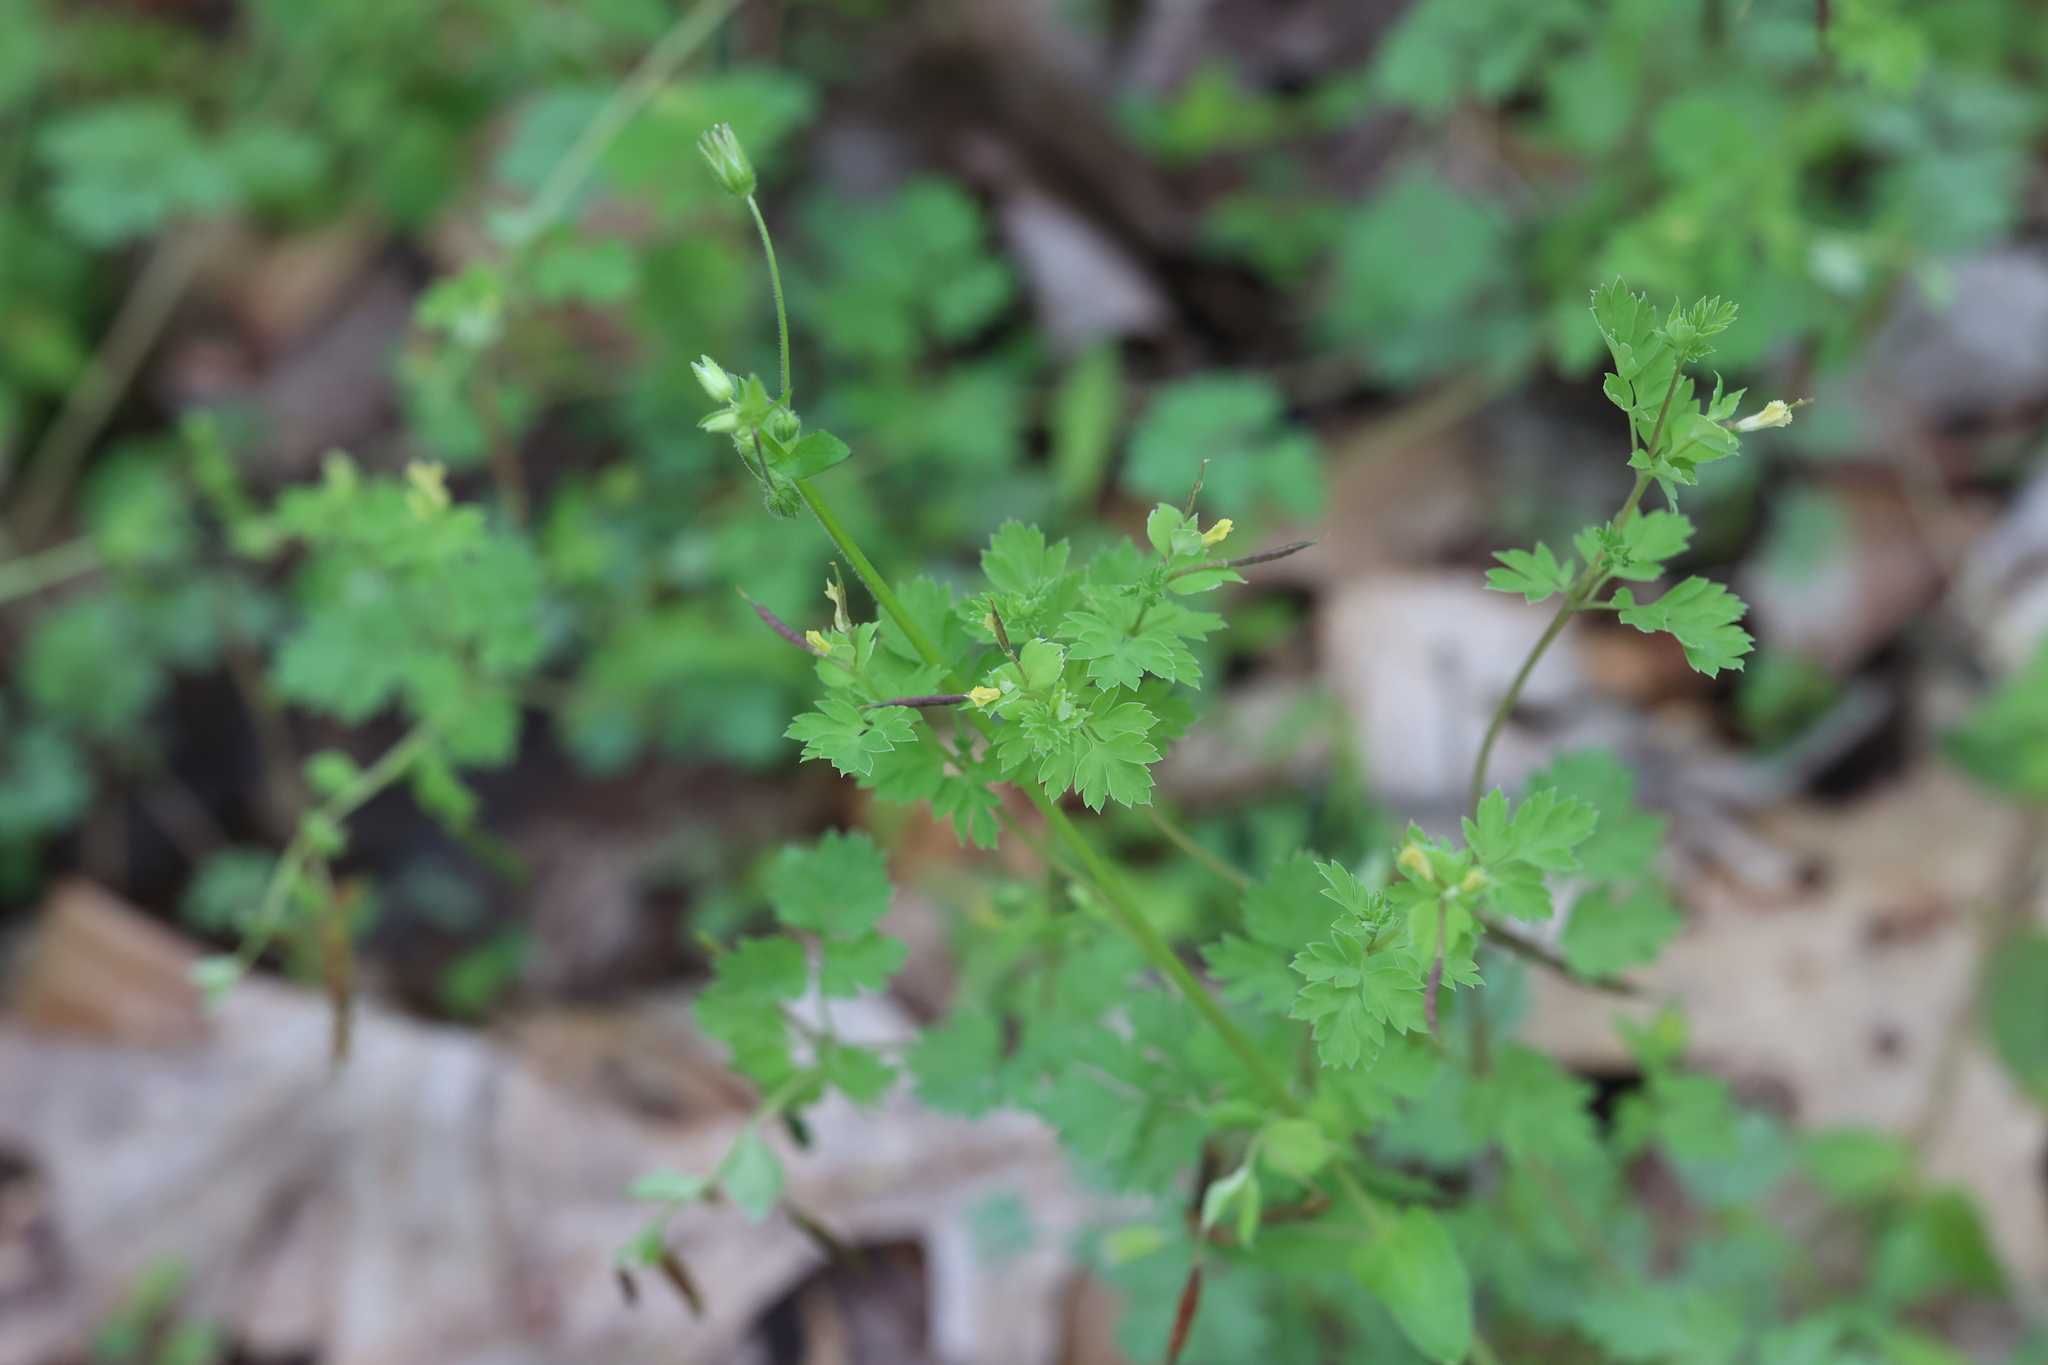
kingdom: Plantae
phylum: Tracheophyta
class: Magnoliopsida
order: Ranunculales
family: Papaveraceae
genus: Corydalis
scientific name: Corydalis flavula
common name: Yellow corydalis
